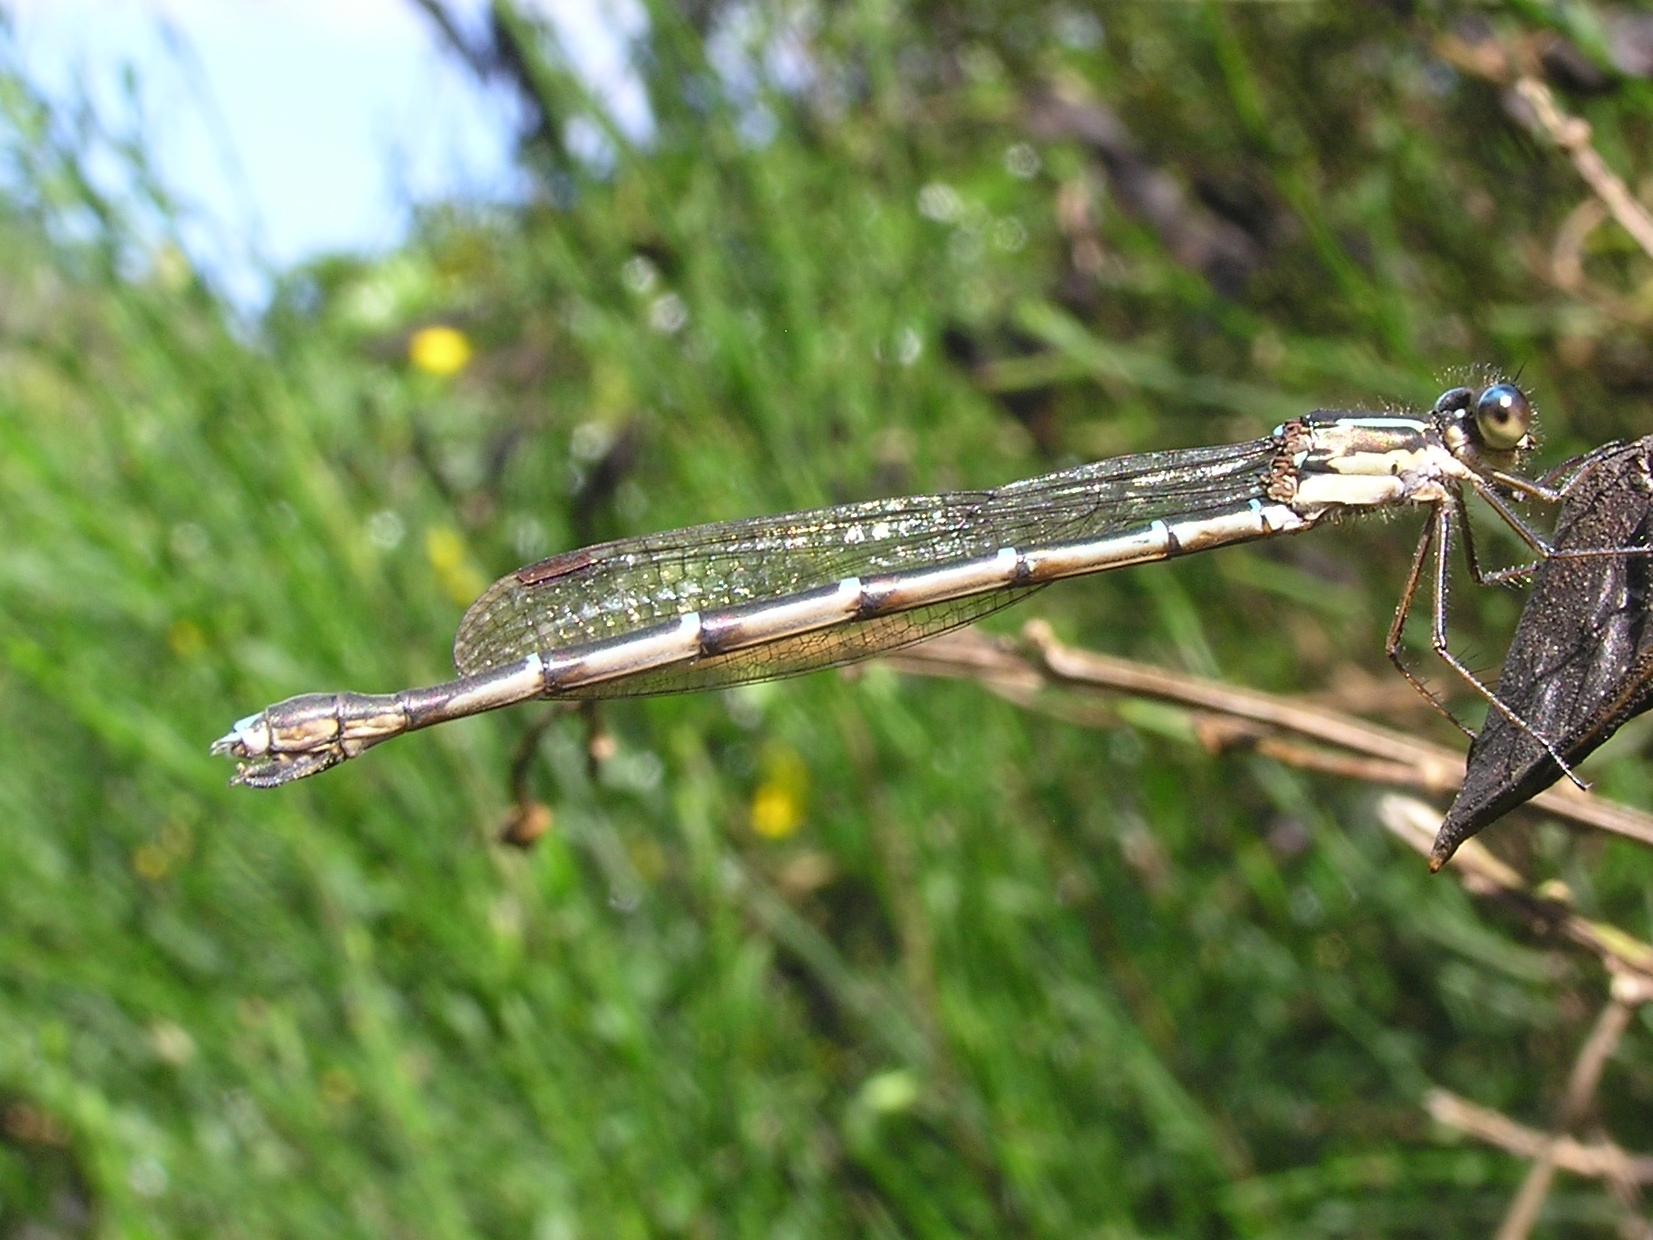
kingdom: Animalia
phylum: Arthropoda
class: Insecta
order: Odonata
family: Lestidae
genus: Austrolestes
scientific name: Austrolestes colensonis
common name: Blue damselfly
